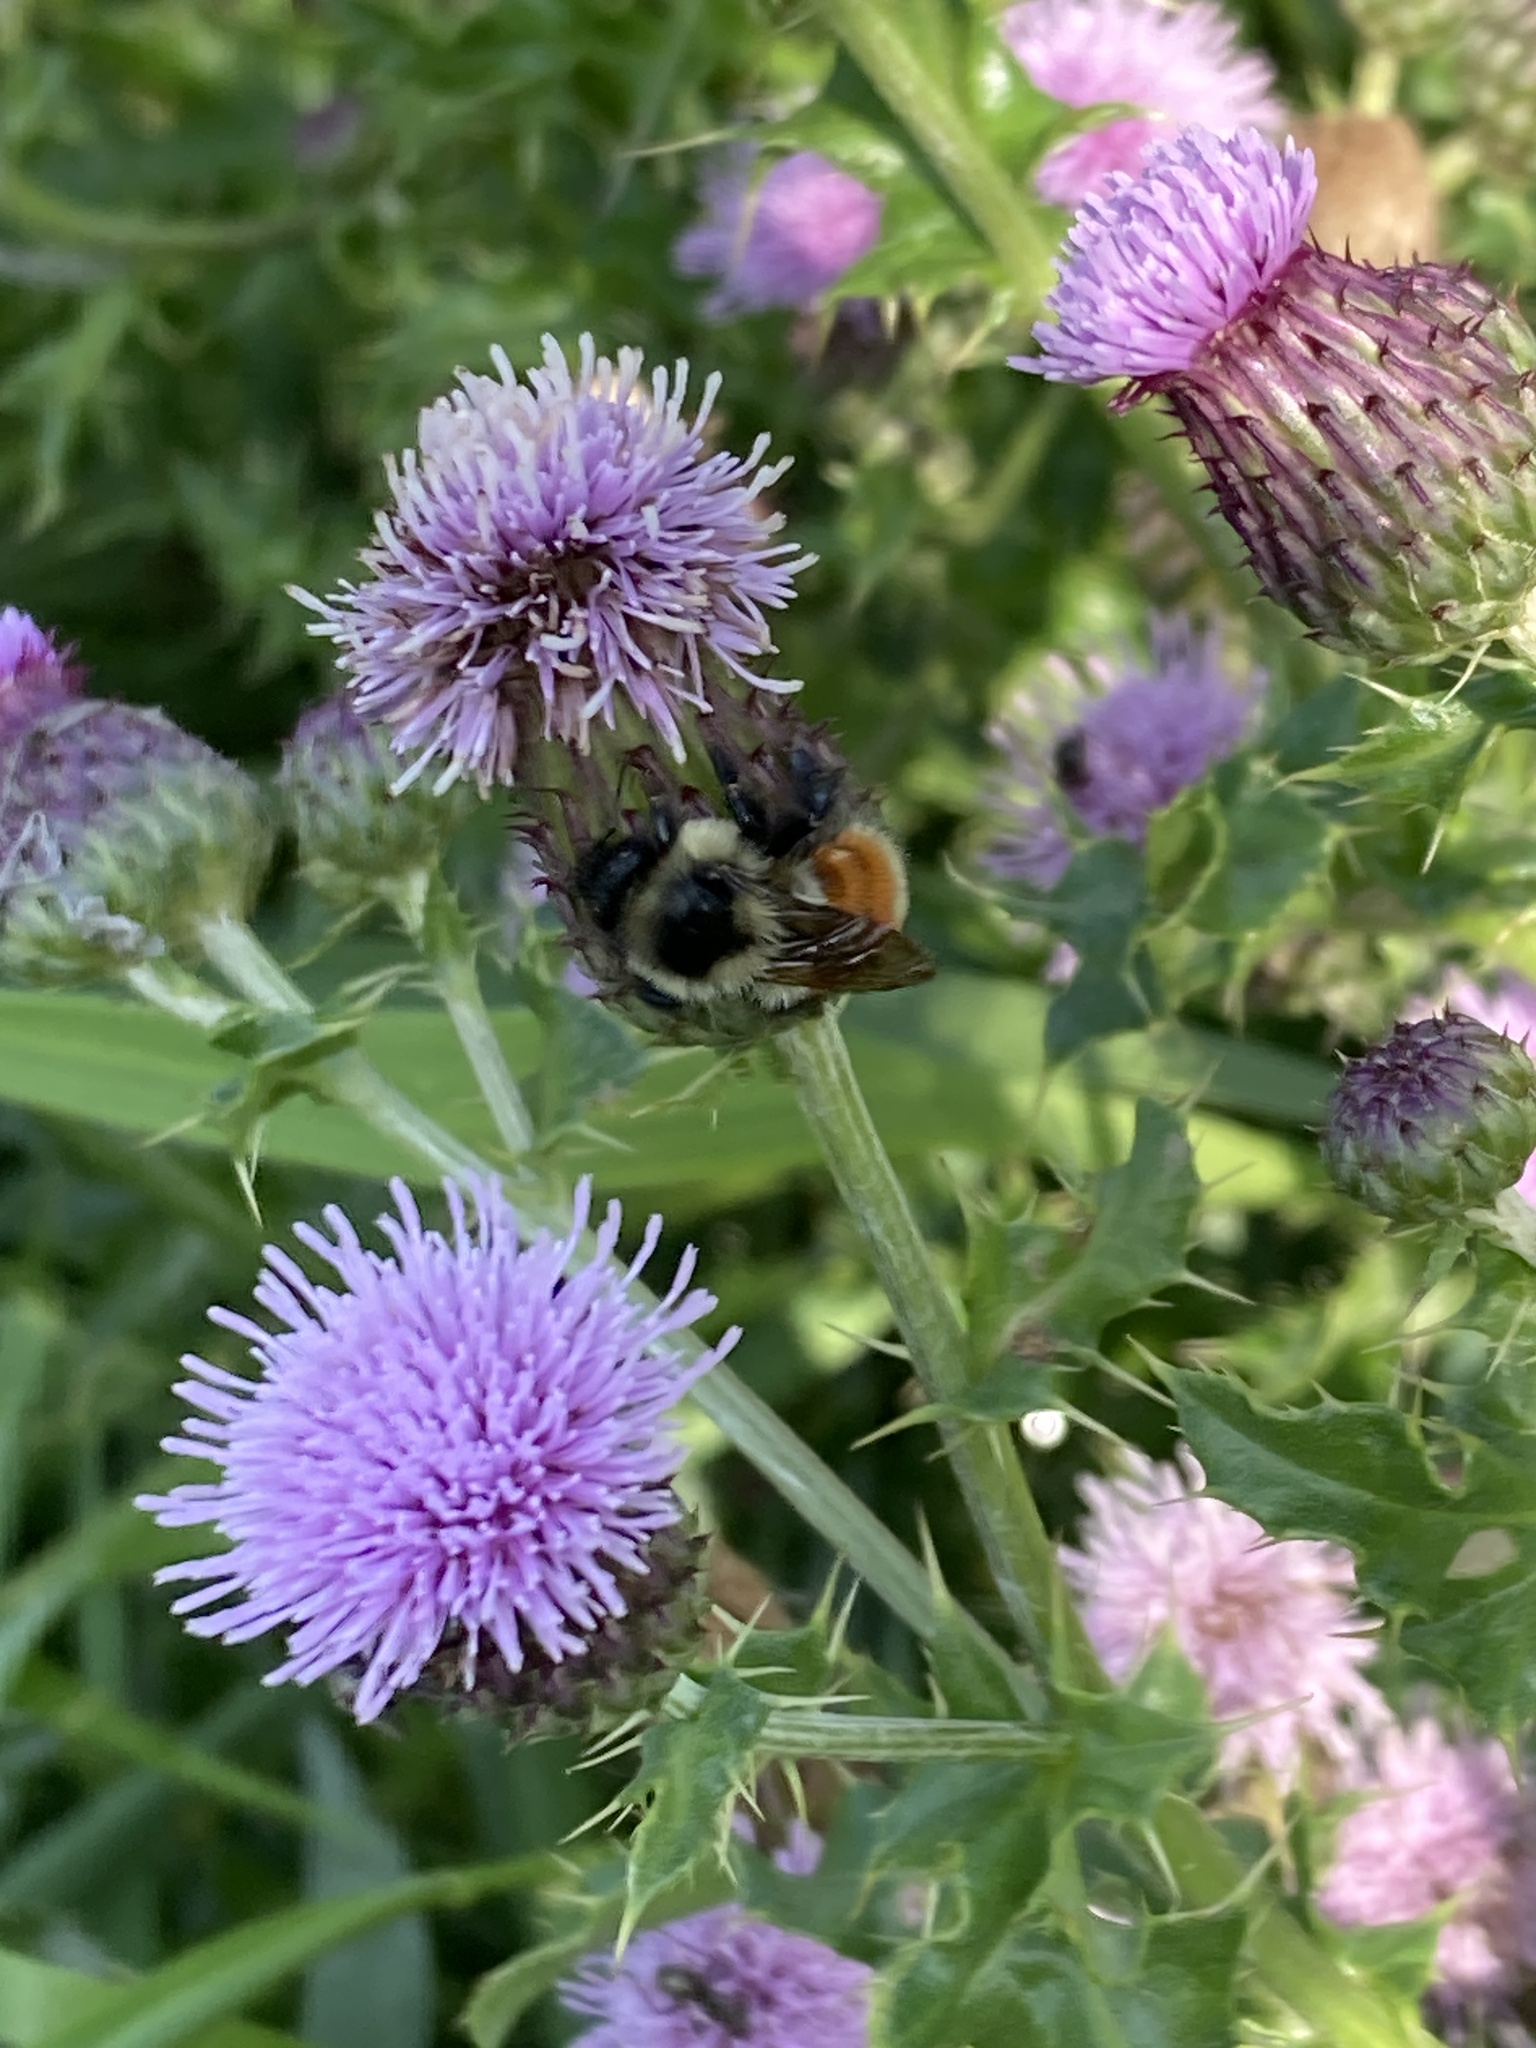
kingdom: Animalia
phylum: Arthropoda
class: Insecta
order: Hymenoptera
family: Apidae
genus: Bombus
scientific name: Bombus ternarius
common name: Tri-colored bumble bee
